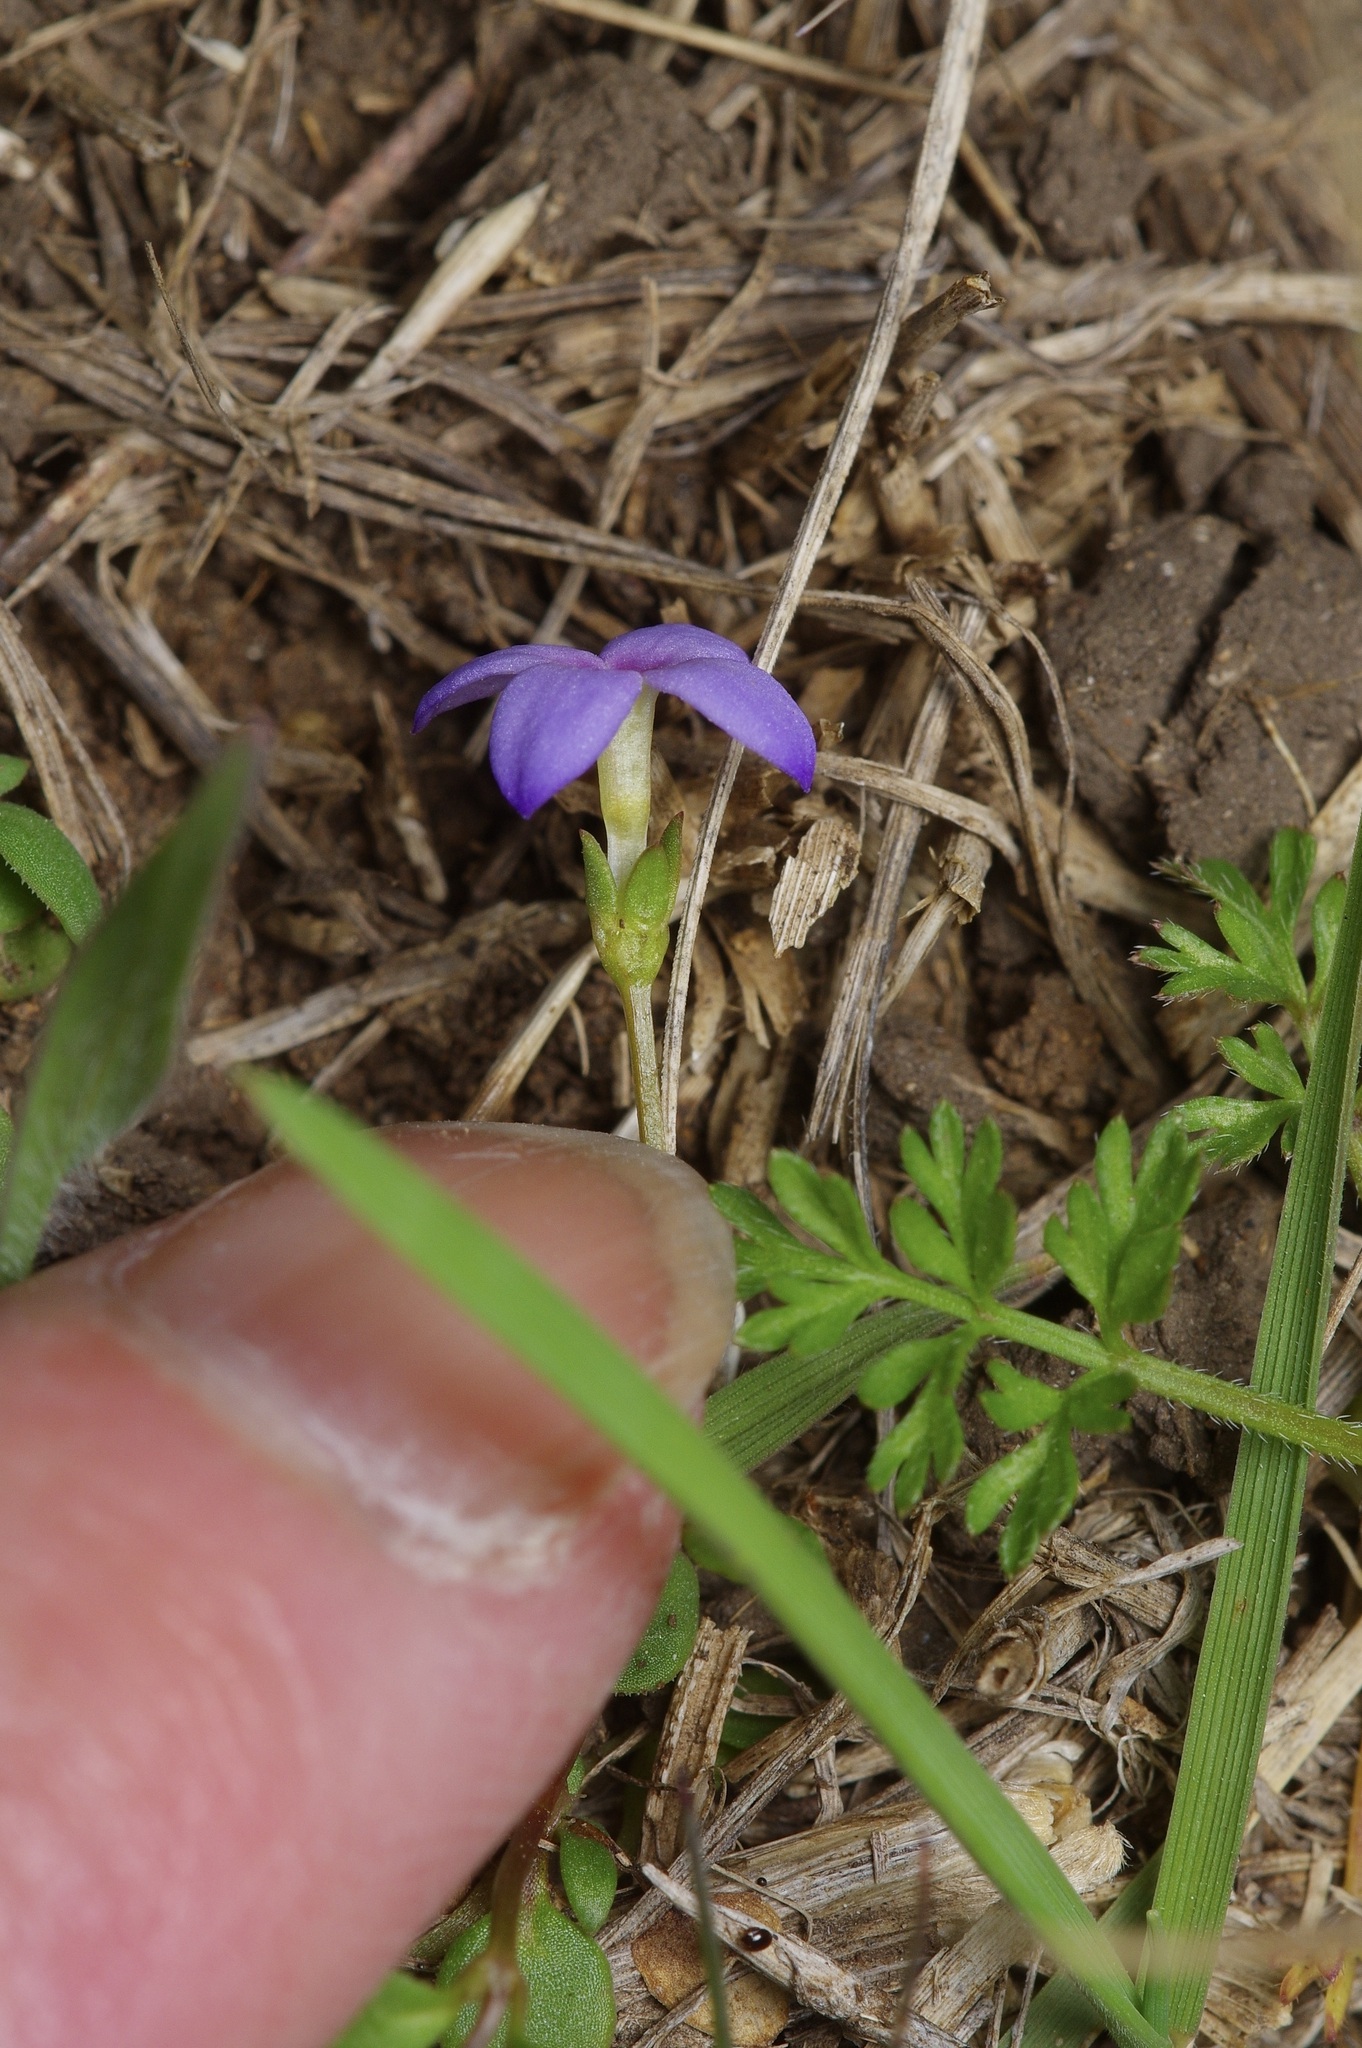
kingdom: Plantae
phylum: Tracheophyta
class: Magnoliopsida
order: Gentianales
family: Rubiaceae
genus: Houstonia
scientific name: Houstonia pusilla
